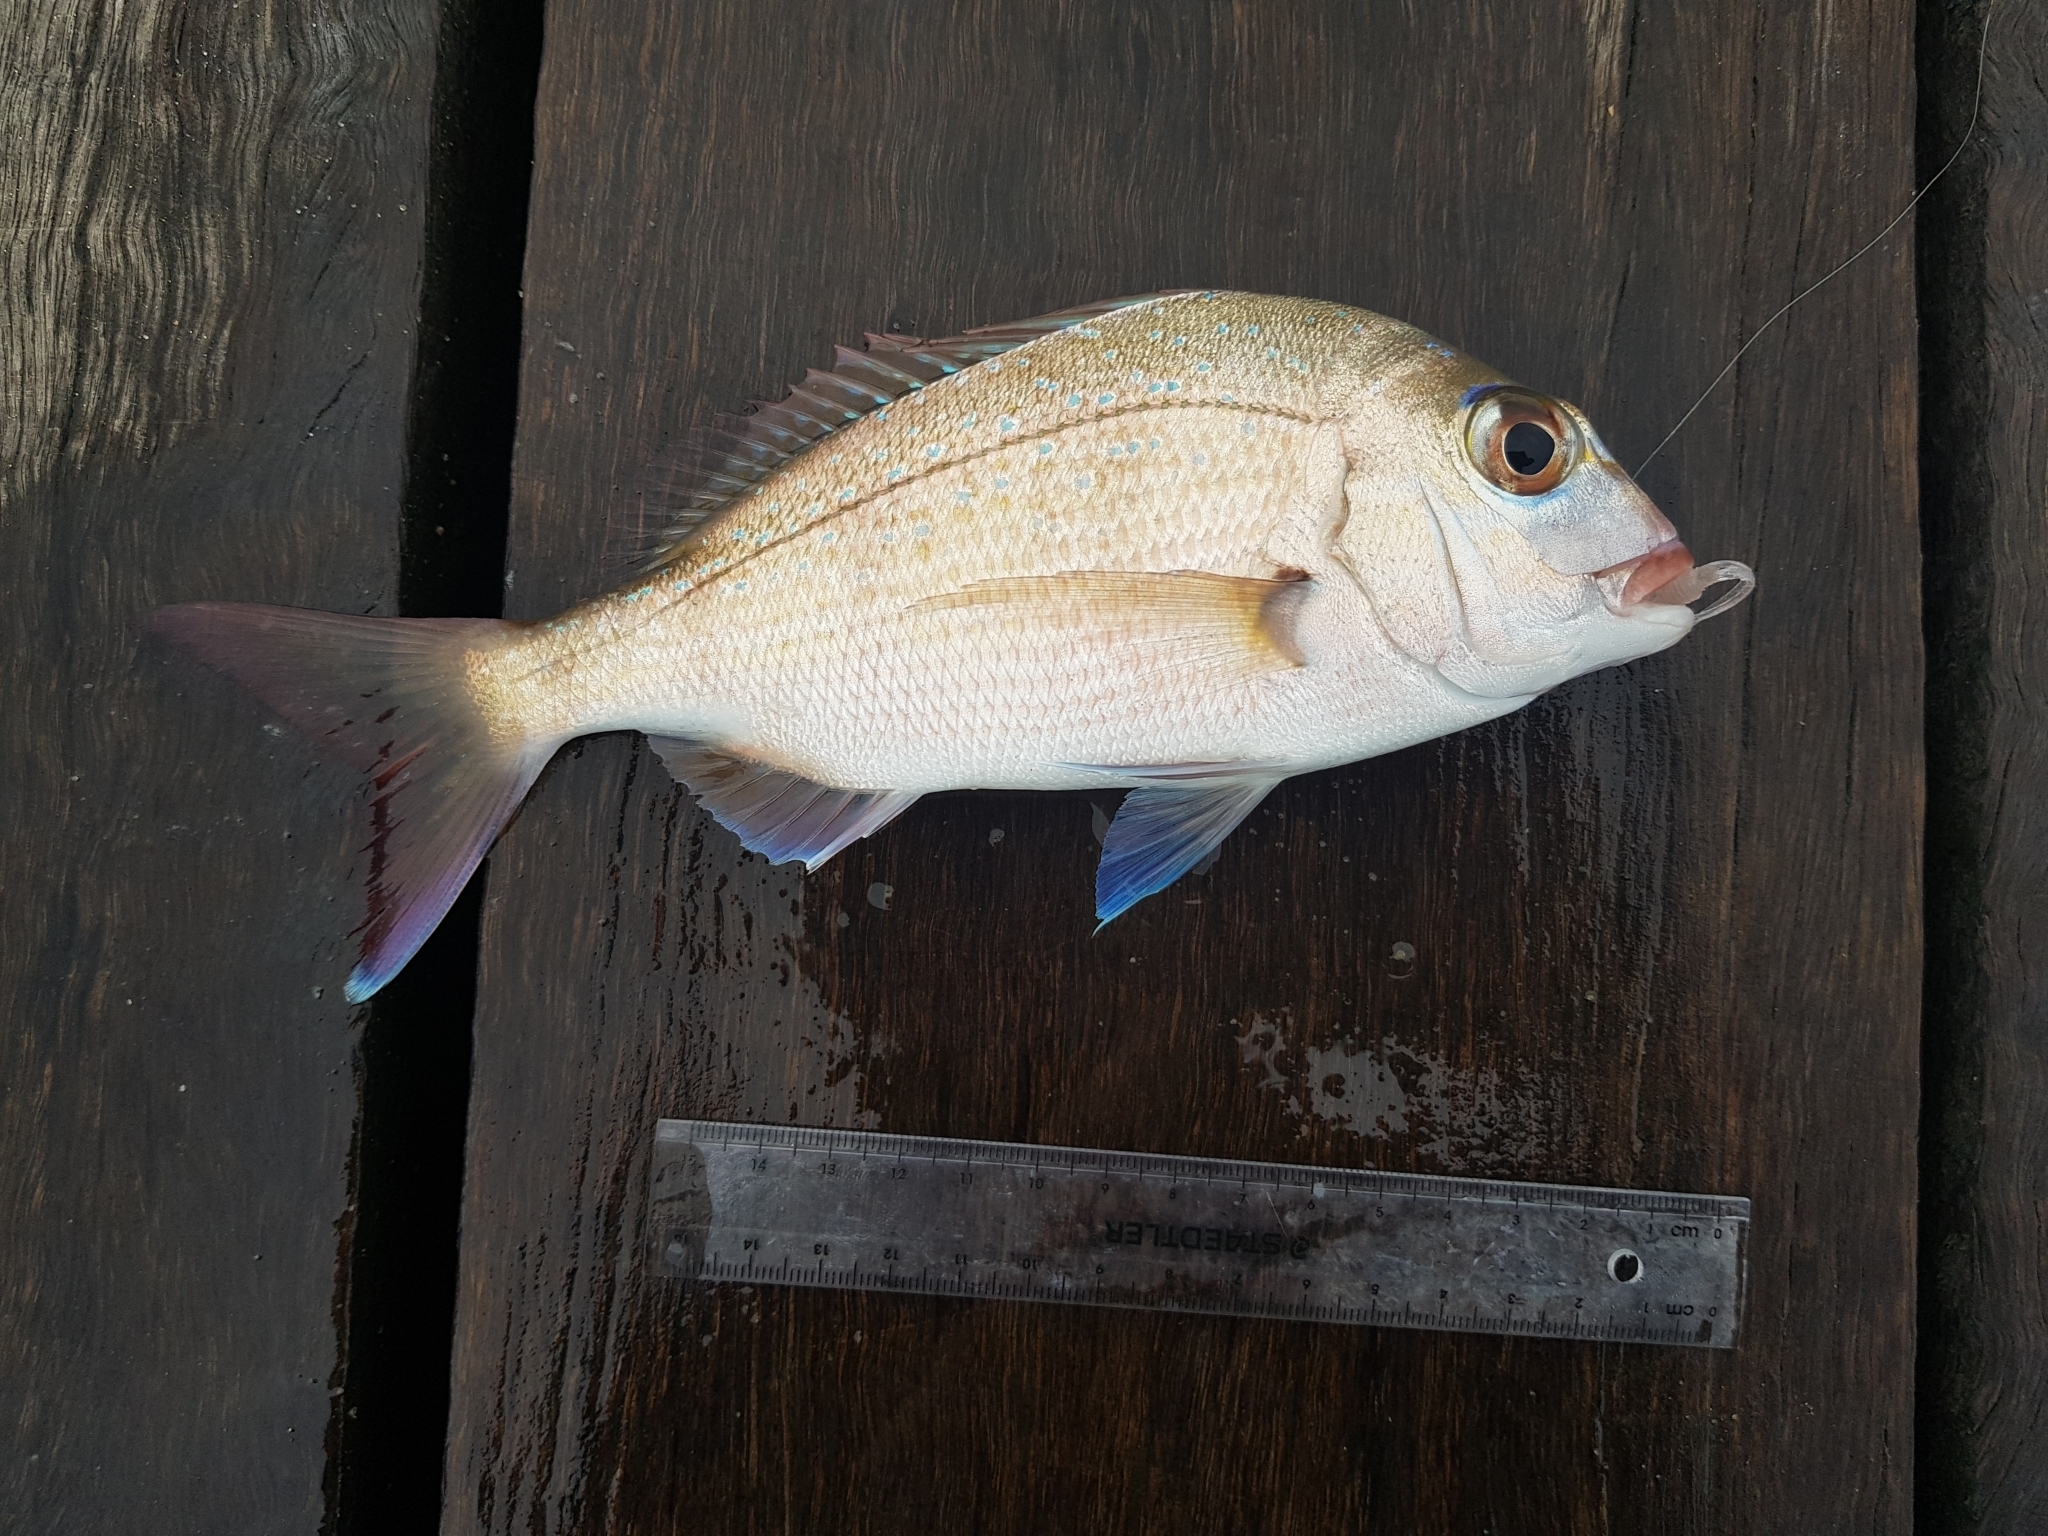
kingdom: Animalia
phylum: Chordata
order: Perciformes
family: Sparidae
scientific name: Sparidae
